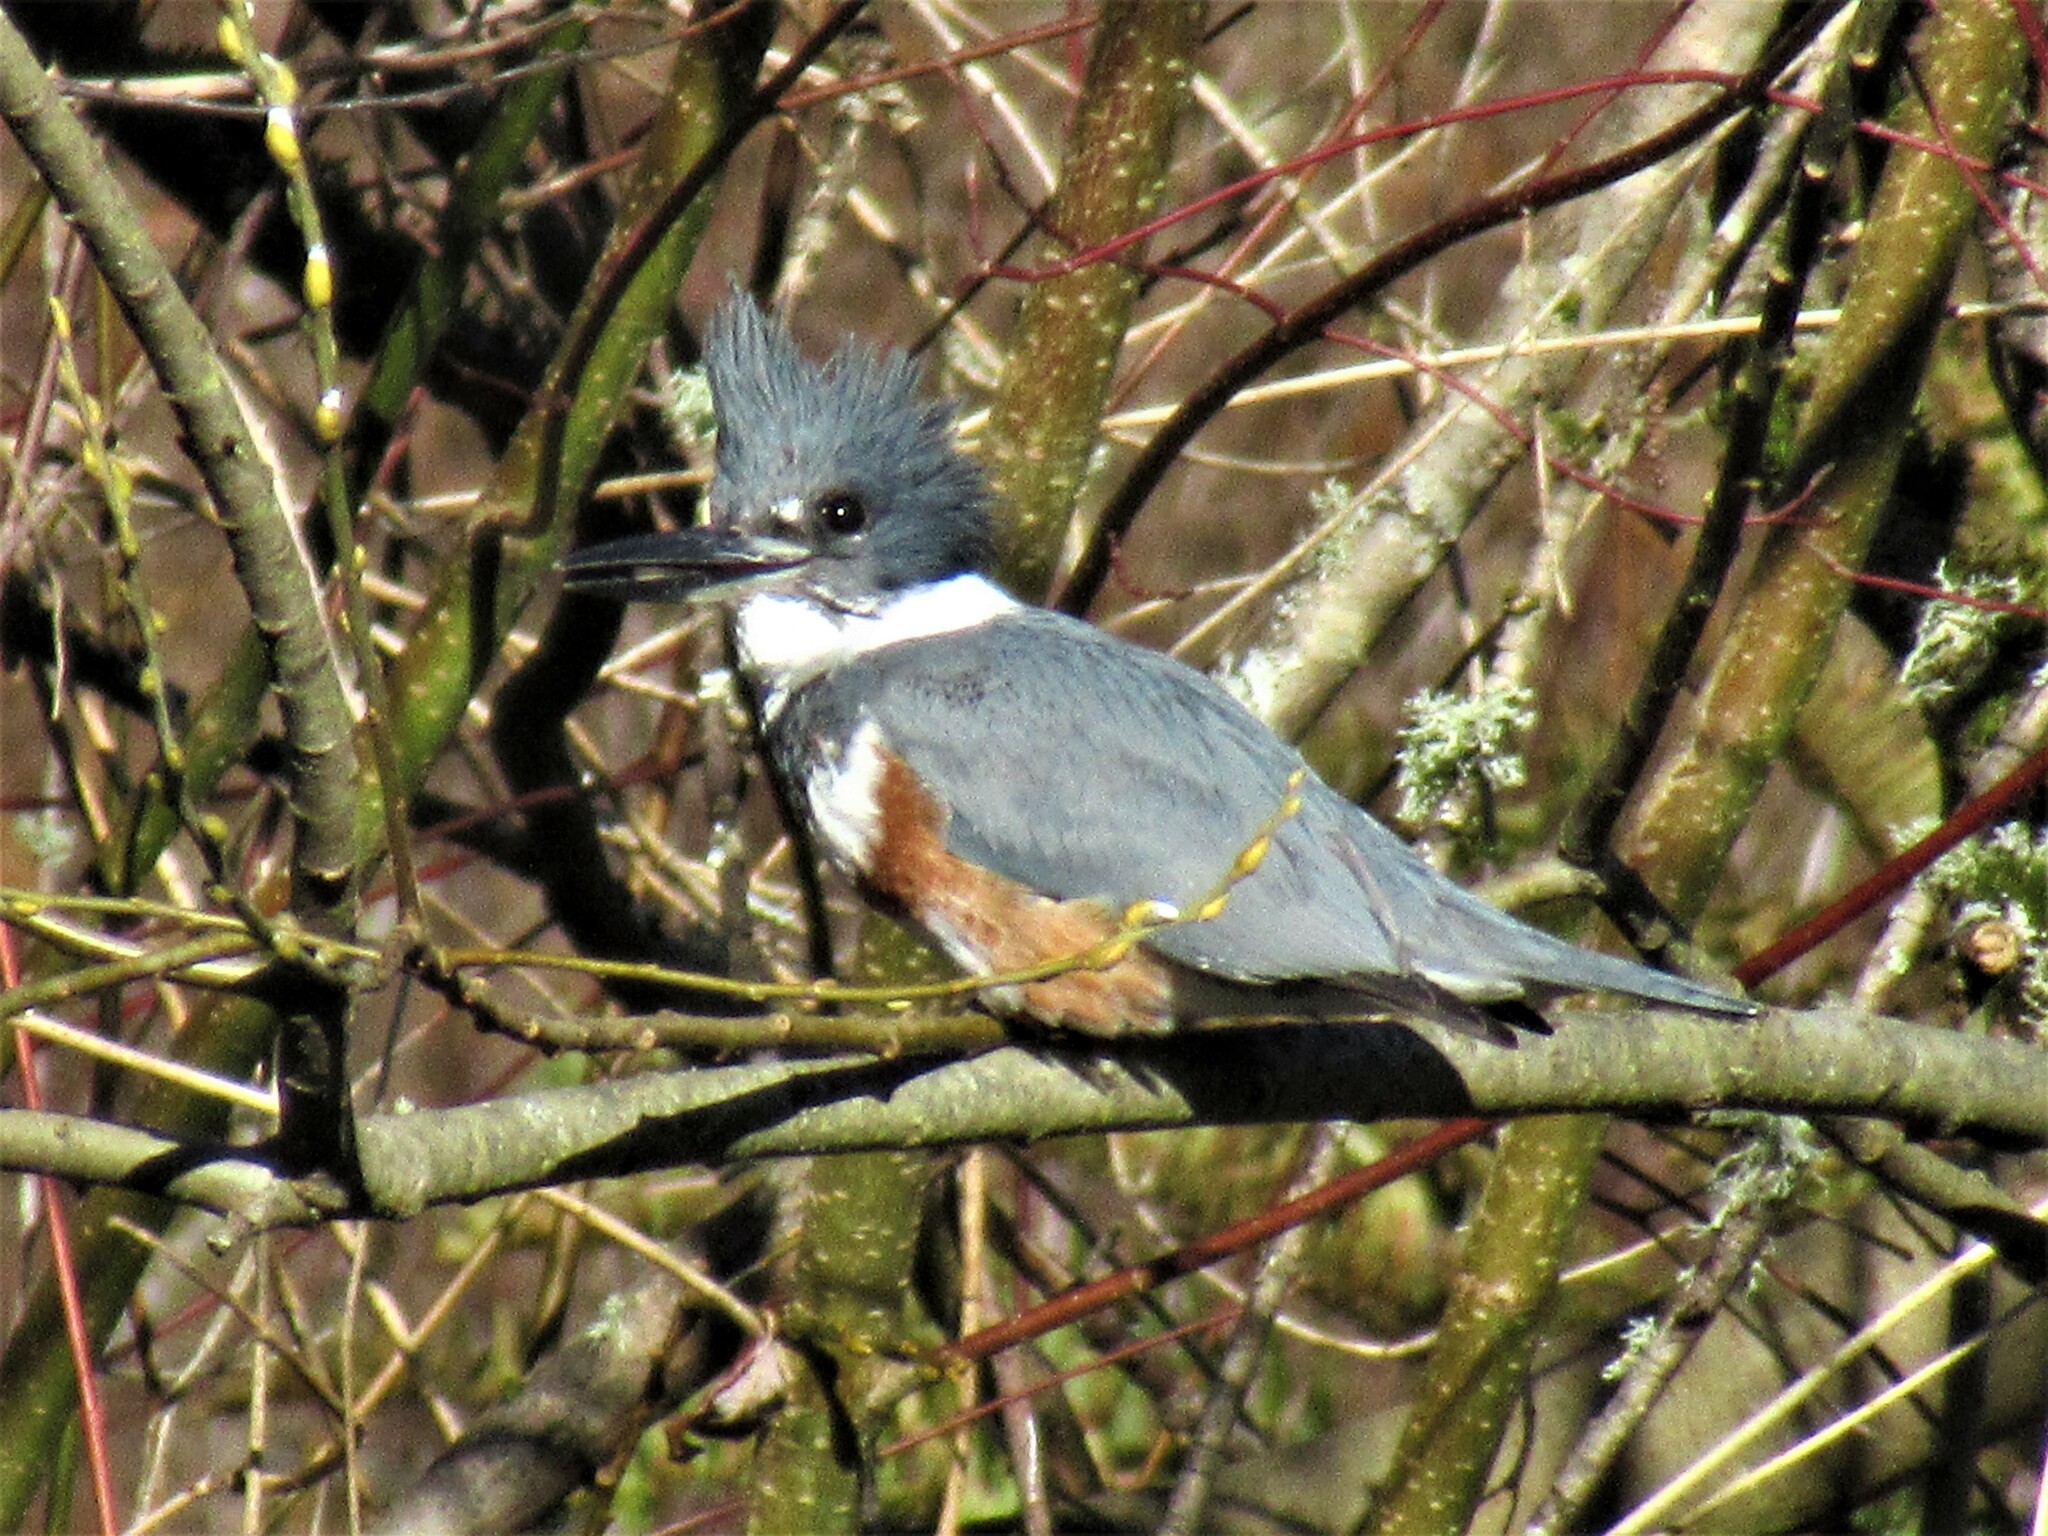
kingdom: Animalia
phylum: Chordata
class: Aves
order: Coraciiformes
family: Alcedinidae
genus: Megaceryle
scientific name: Megaceryle alcyon
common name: Belted kingfisher
